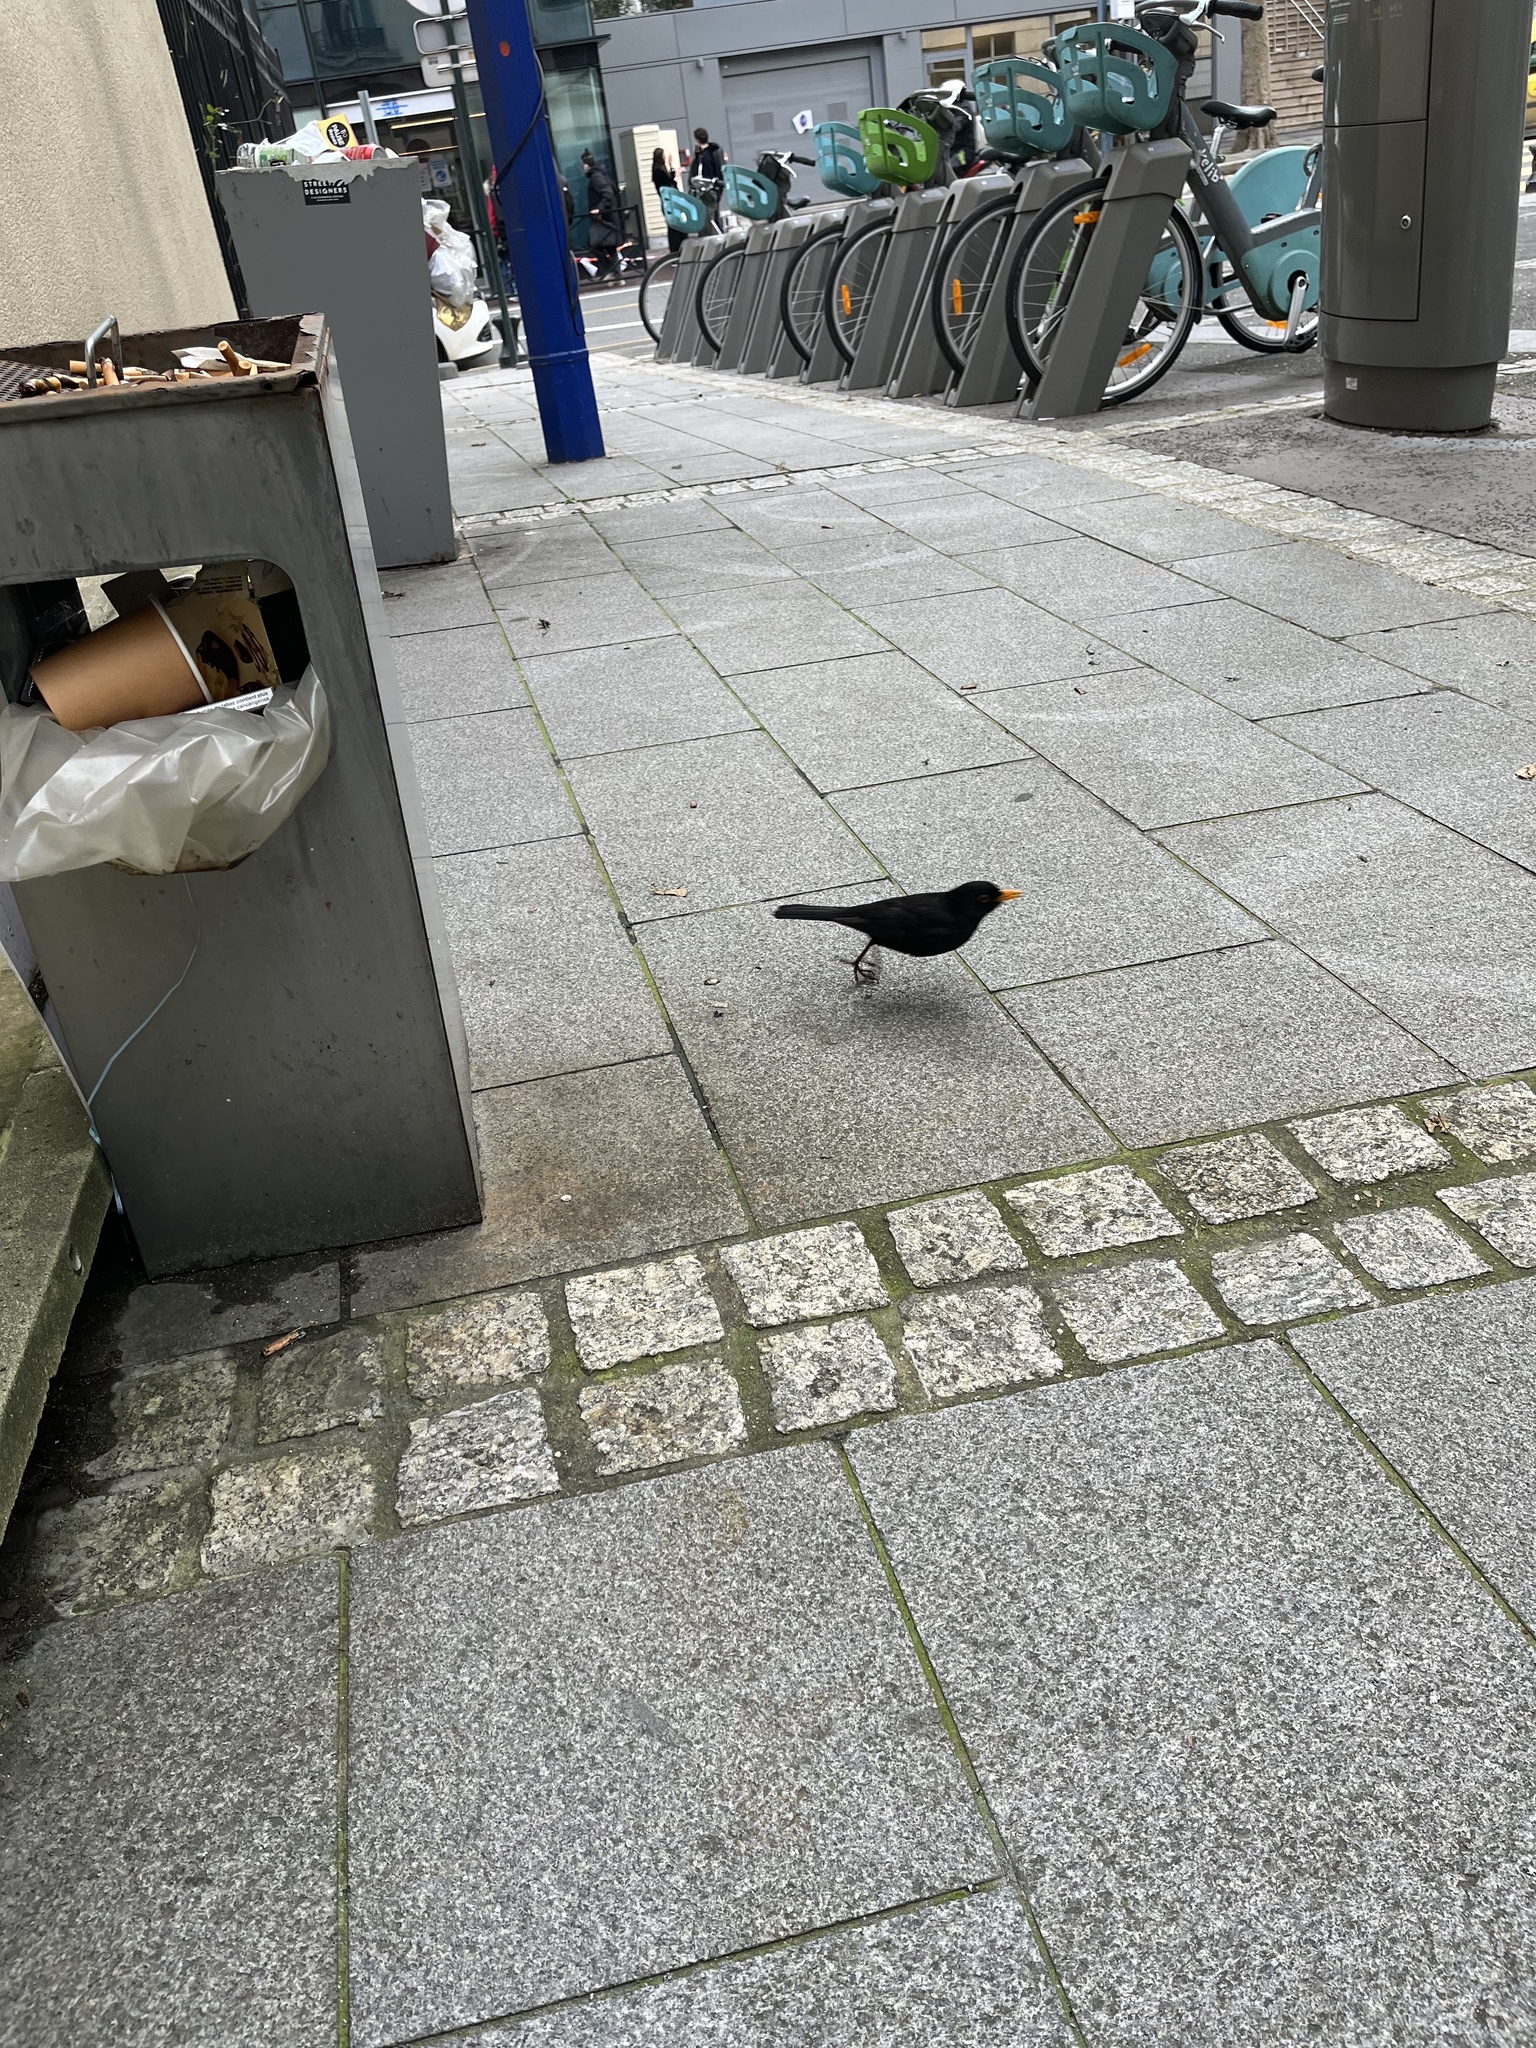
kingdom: Animalia
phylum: Chordata
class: Aves
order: Passeriformes
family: Turdidae
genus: Turdus
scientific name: Turdus merula
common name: Common blackbird
